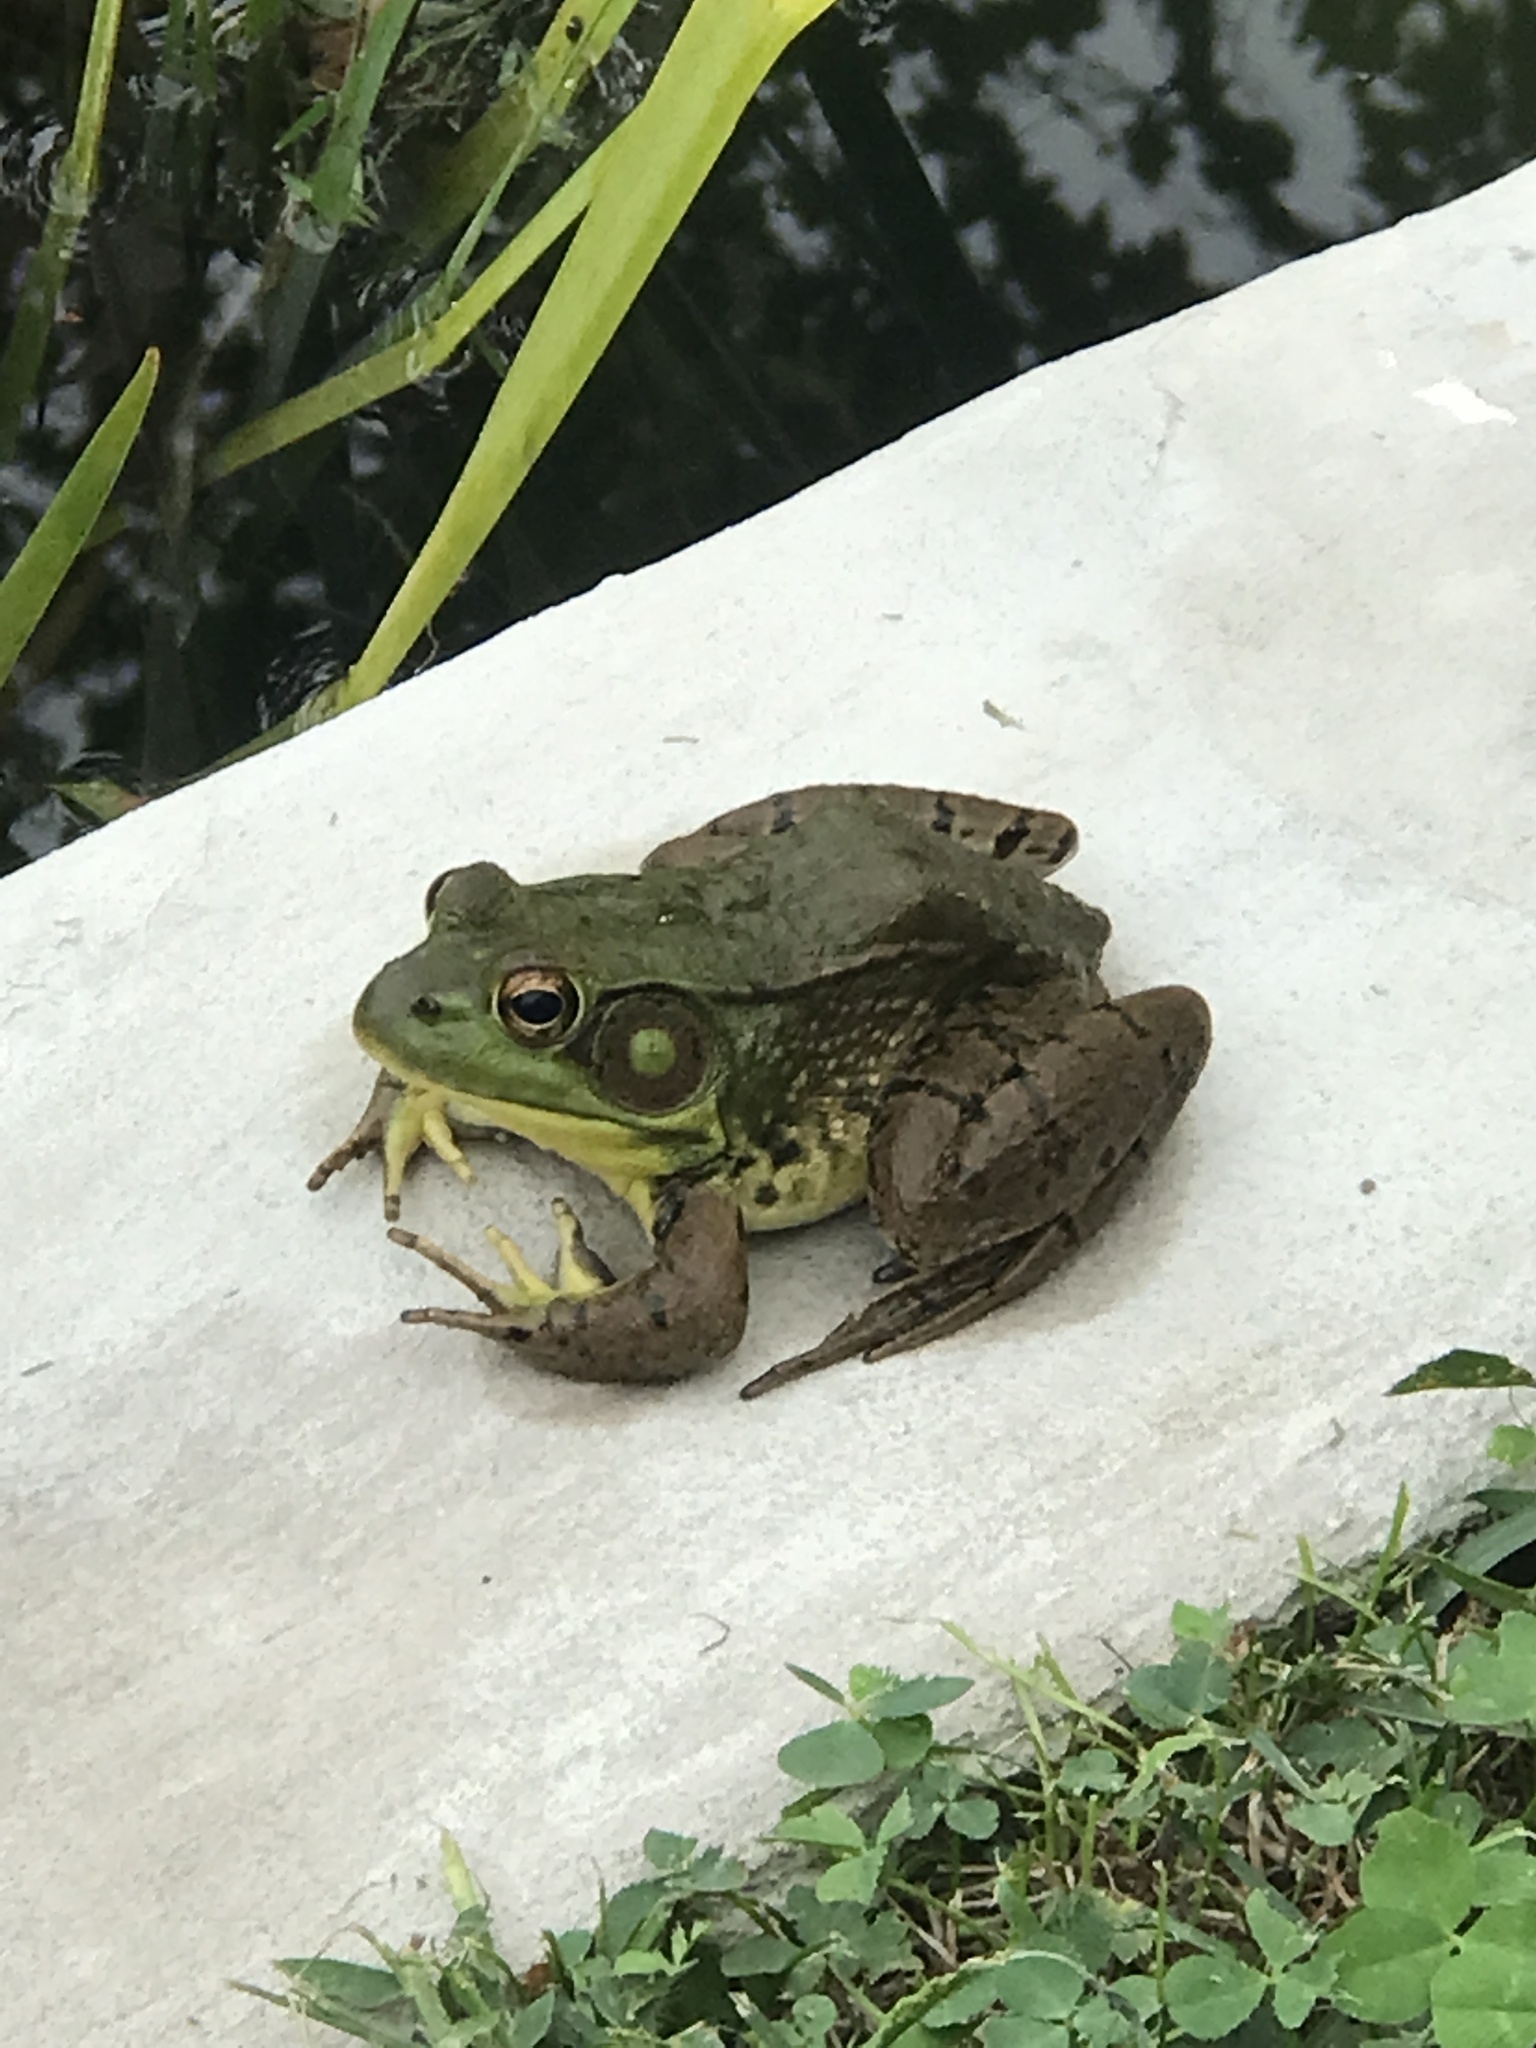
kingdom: Animalia
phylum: Chordata
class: Amphibia
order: Anura
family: Ranidae
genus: Lithobates
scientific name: Lithobates clamitans
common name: Green frog
